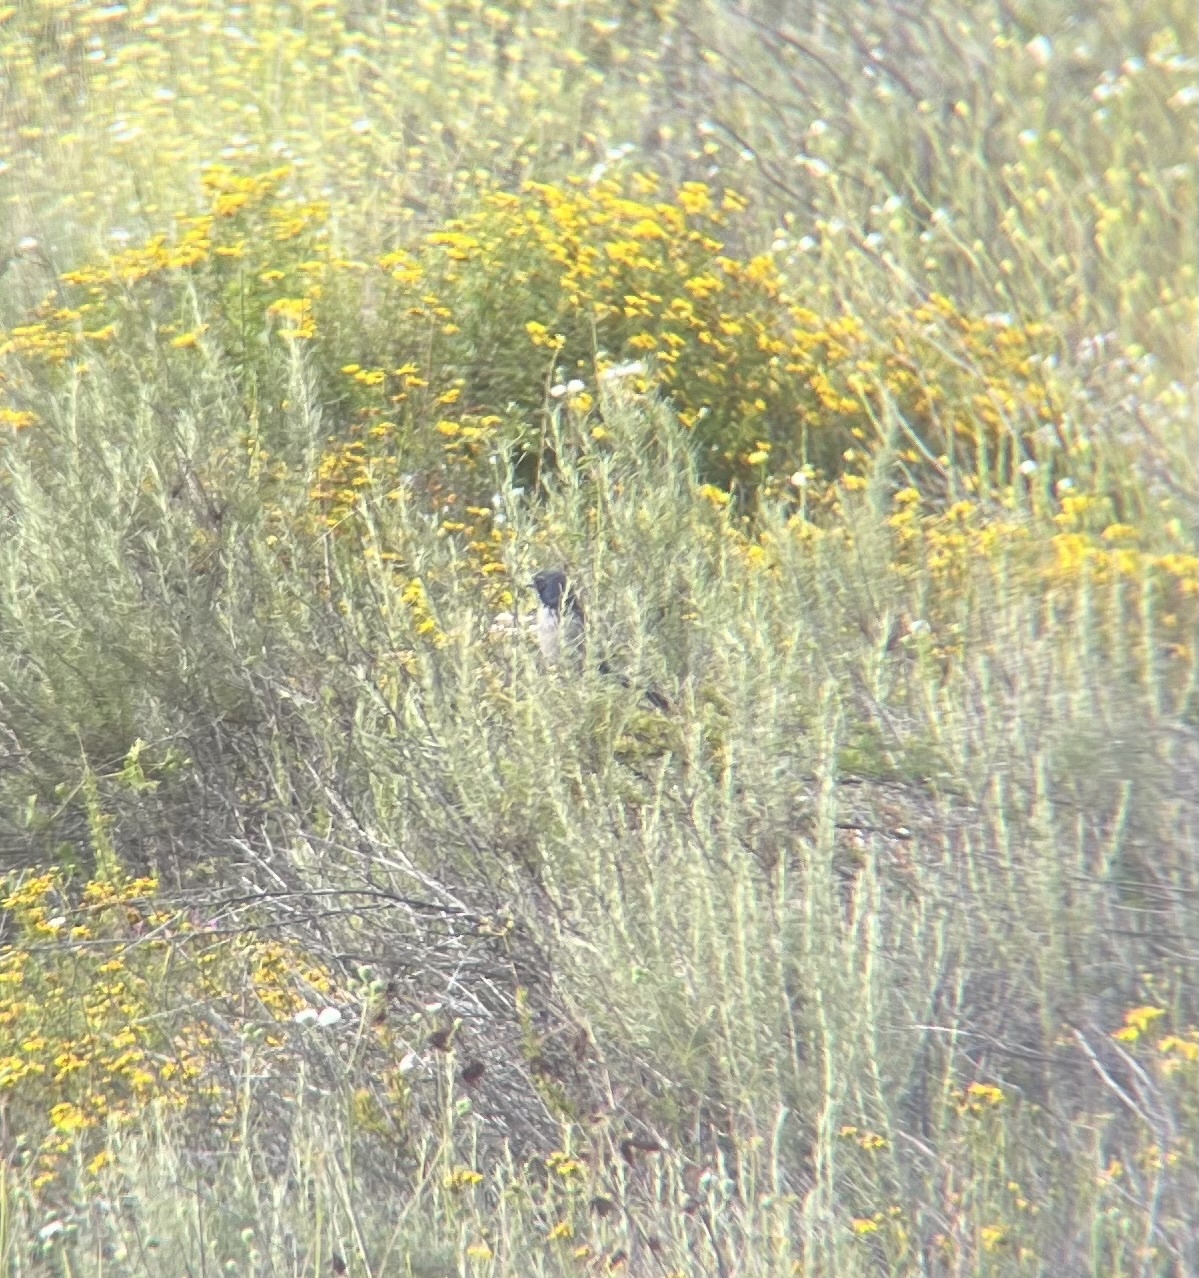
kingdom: Animalia
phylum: Chordata
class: Aves
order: Passeriformes
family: Corvidae
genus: Aphelocoma
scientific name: Aphelocoma californica
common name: California scrub-jay
